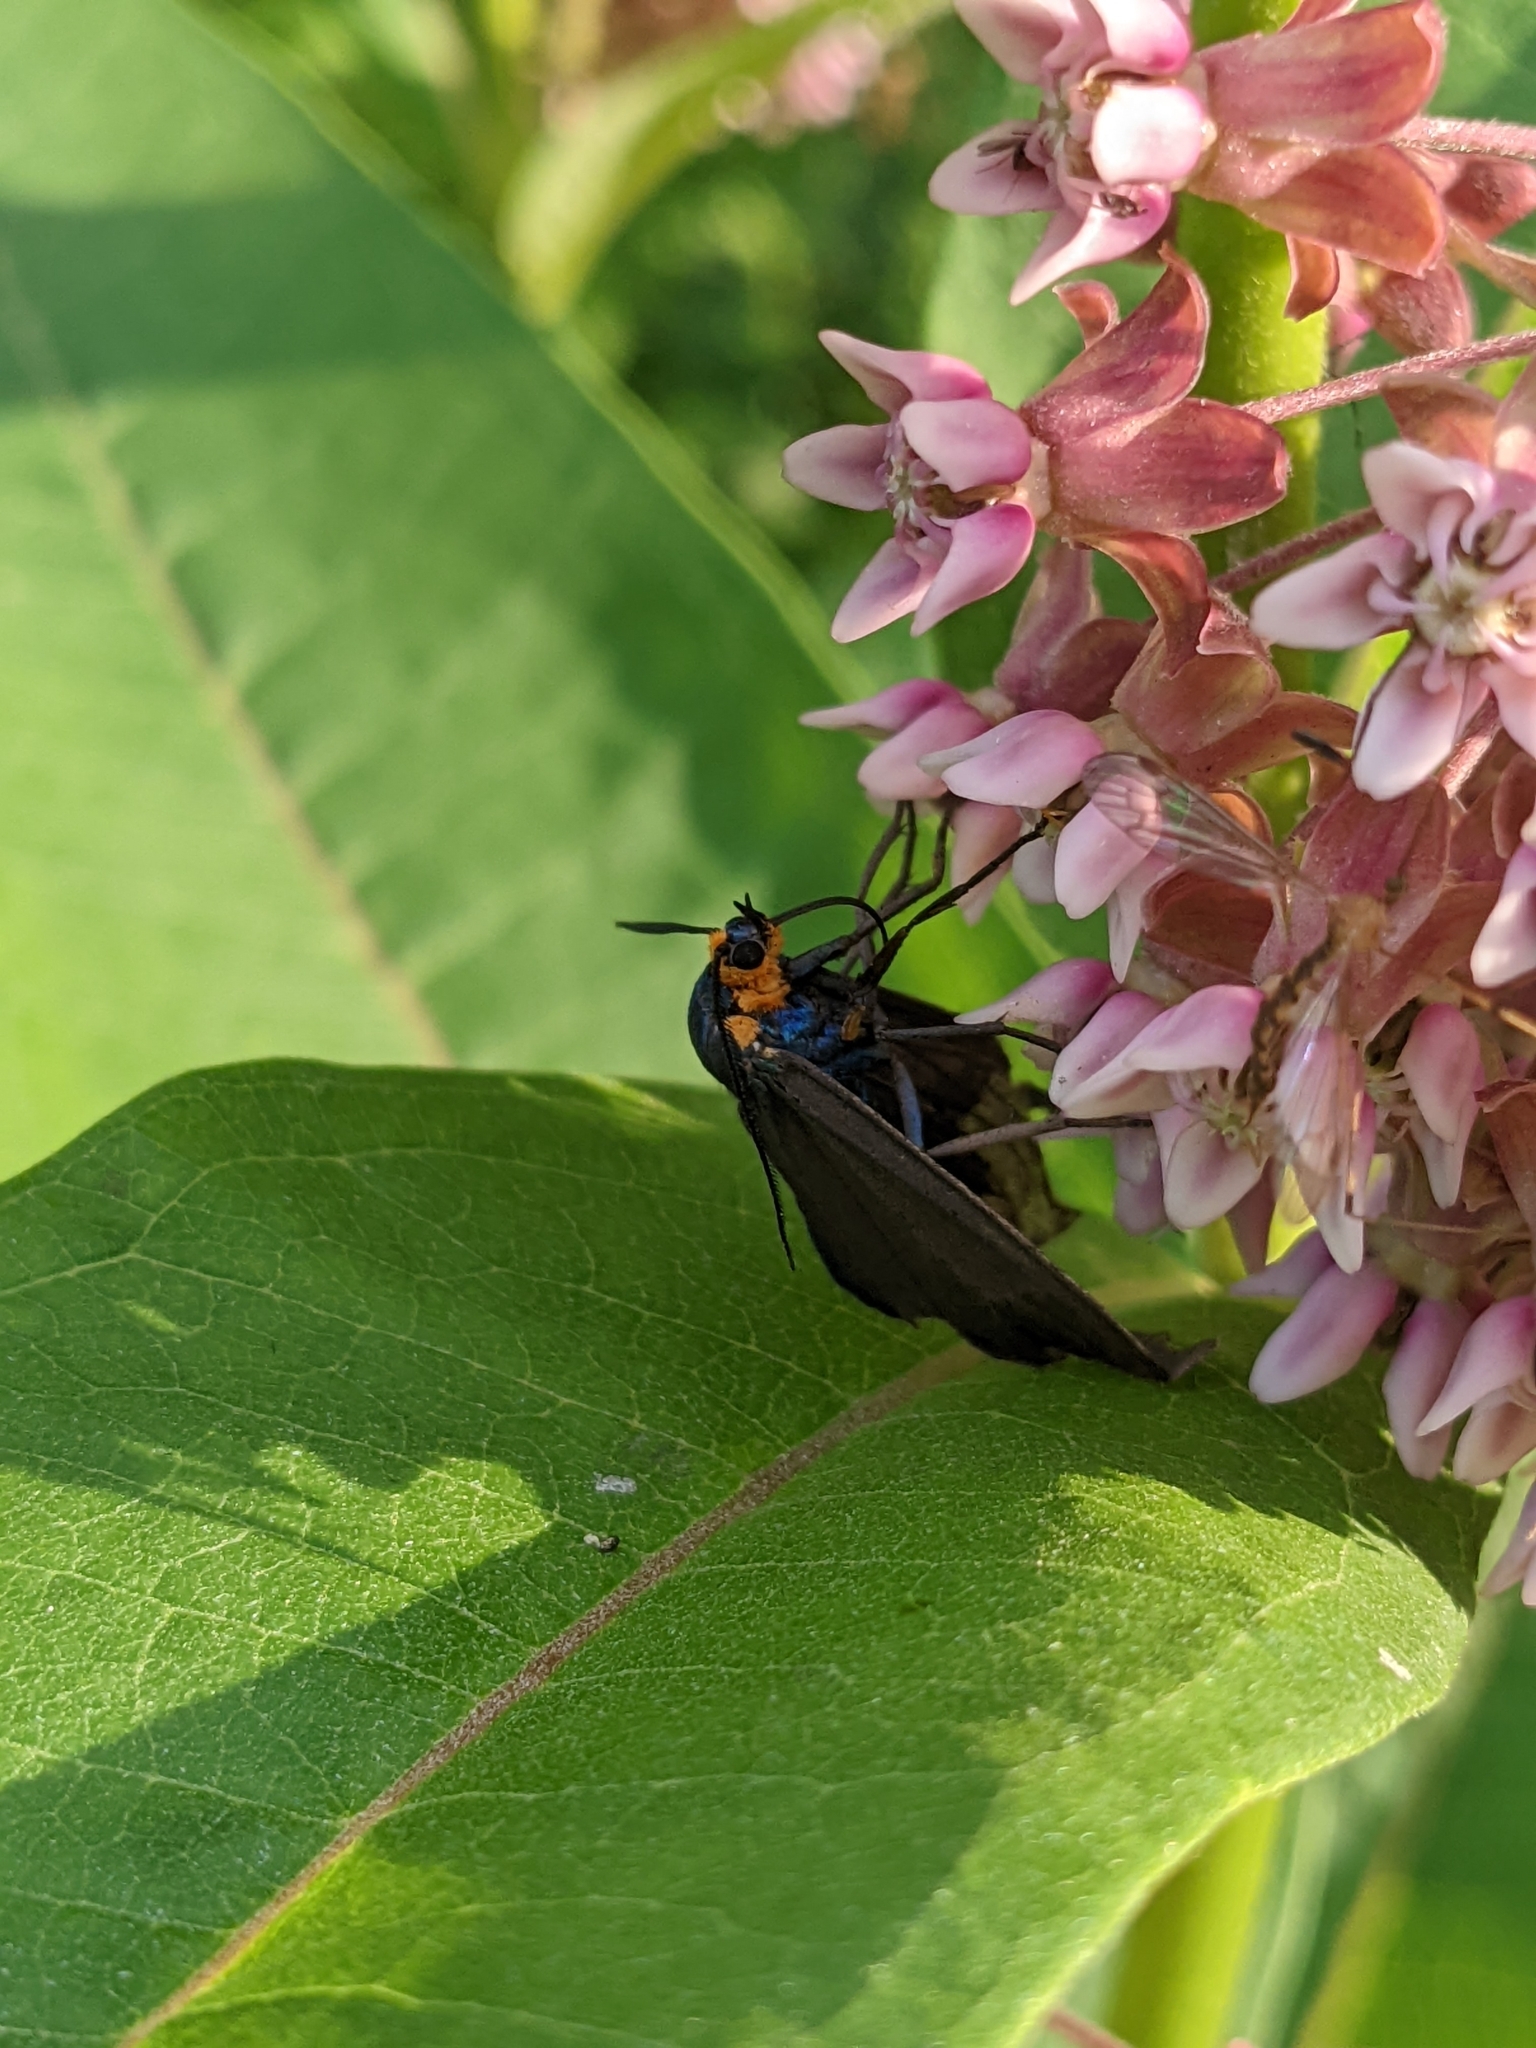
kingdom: Animalia
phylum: Arthropoda
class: Insecta
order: Lepidoptera
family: Erebidae
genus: Ctenucha
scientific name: Ctenucha virginica
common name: Virginia ctenucha moth
